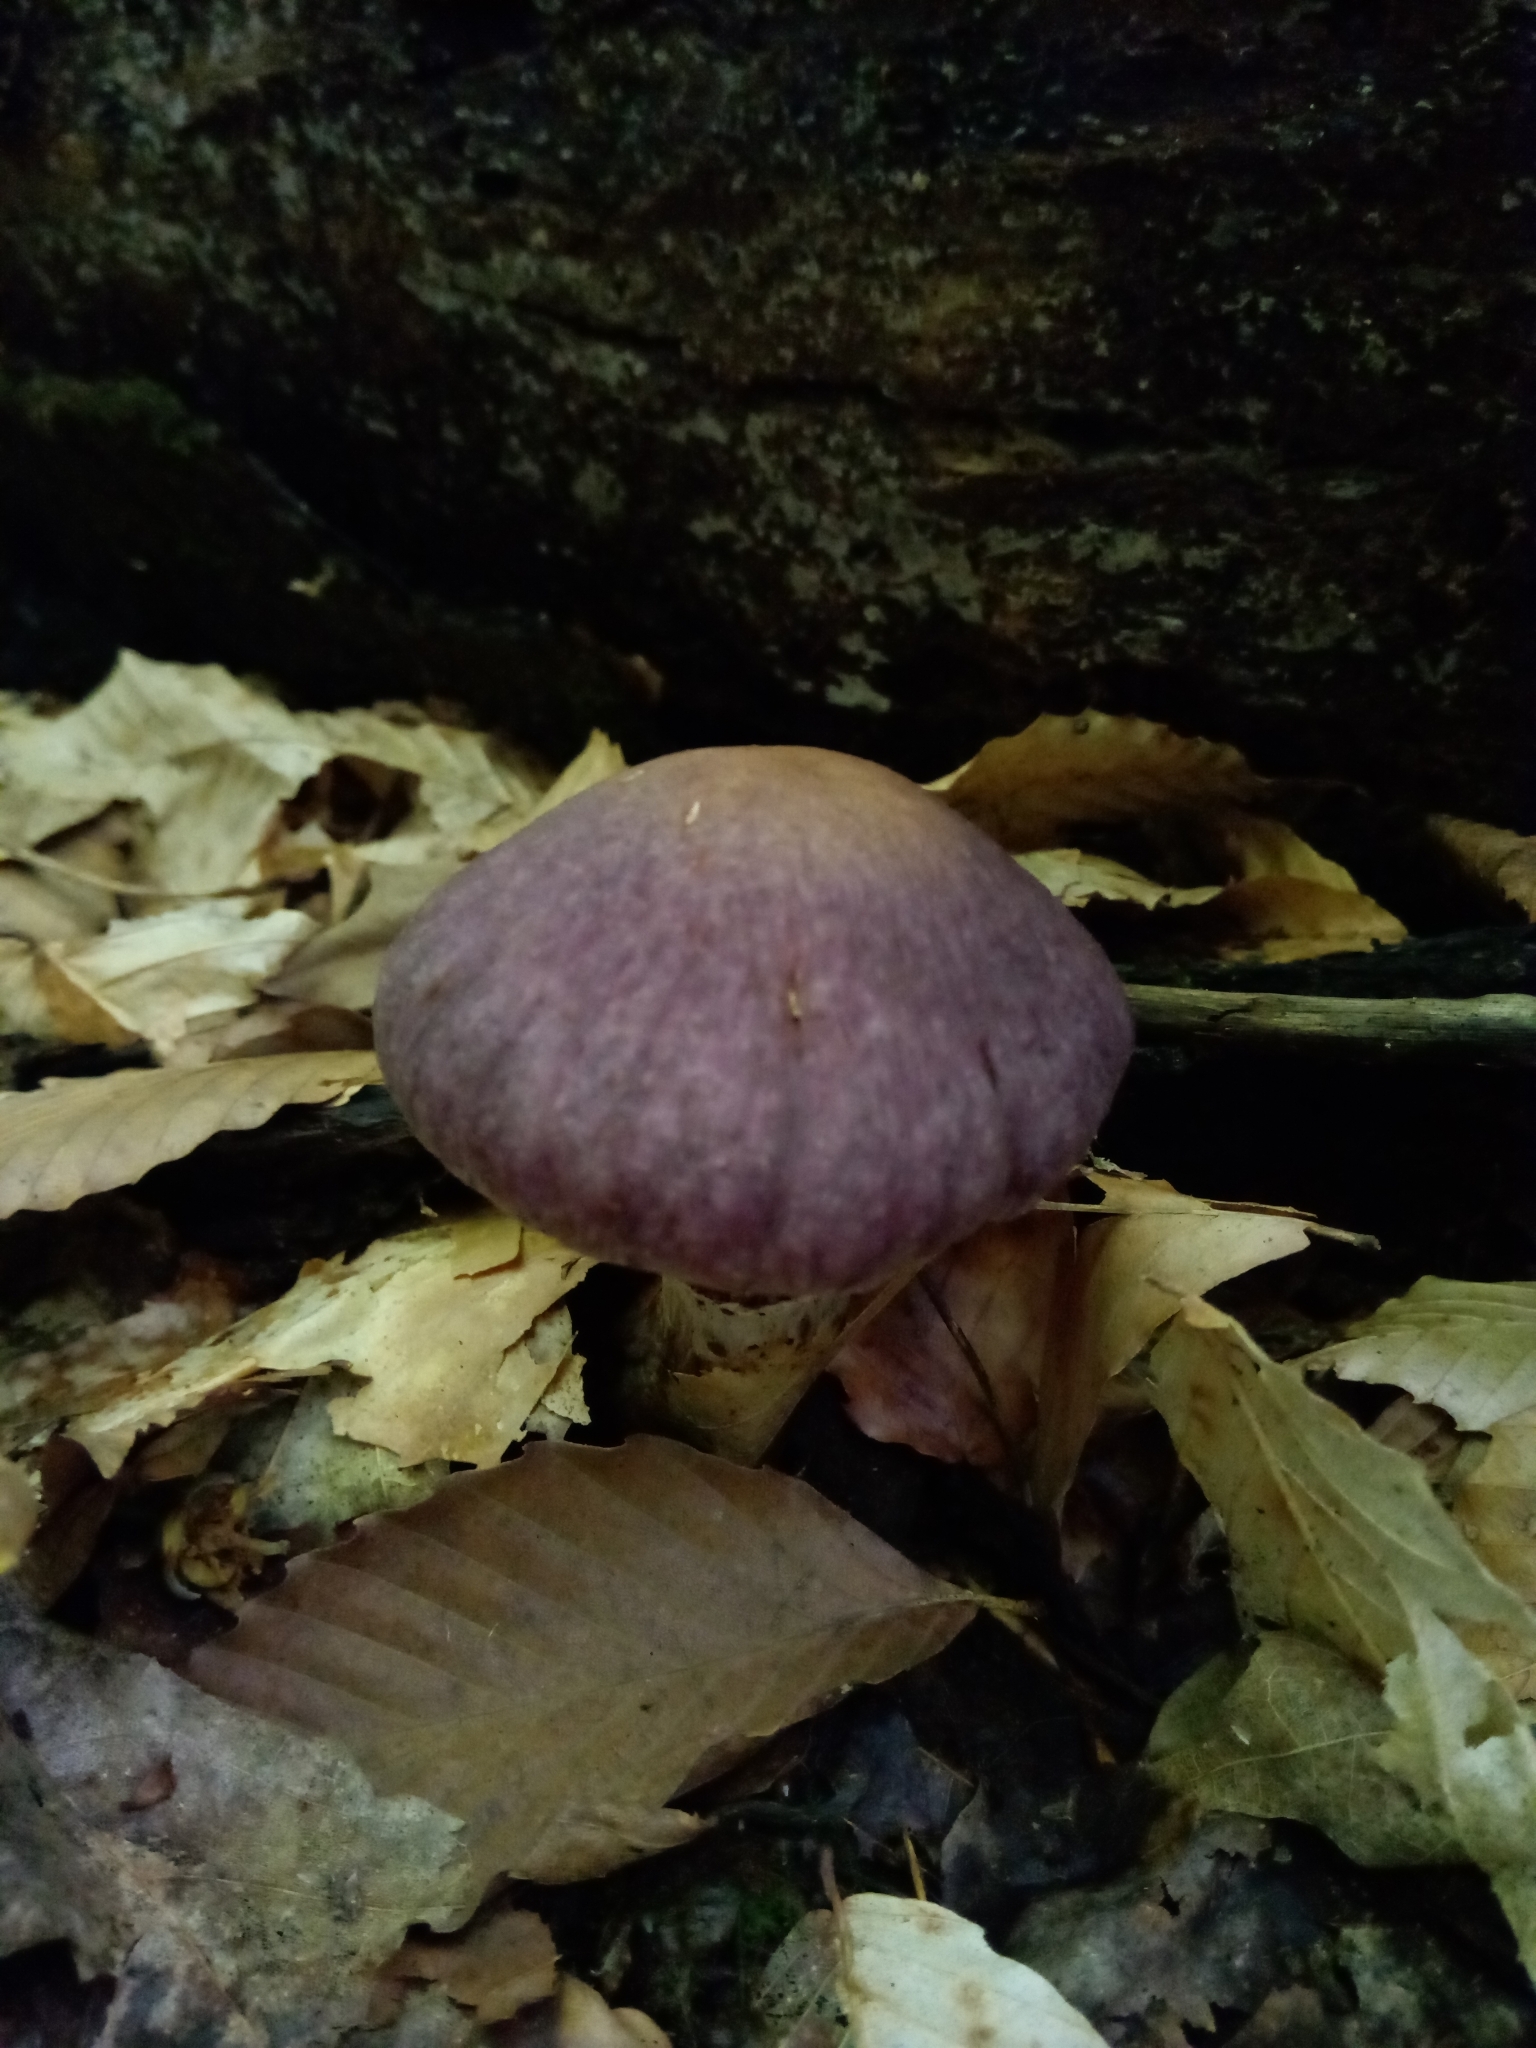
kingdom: Fungi
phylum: Basidiomycota
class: Agaricomycetes
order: Agaricales
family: Cortinariaceae
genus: Cortinarius
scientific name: Cortinarius torvus
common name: Stocking webcap
